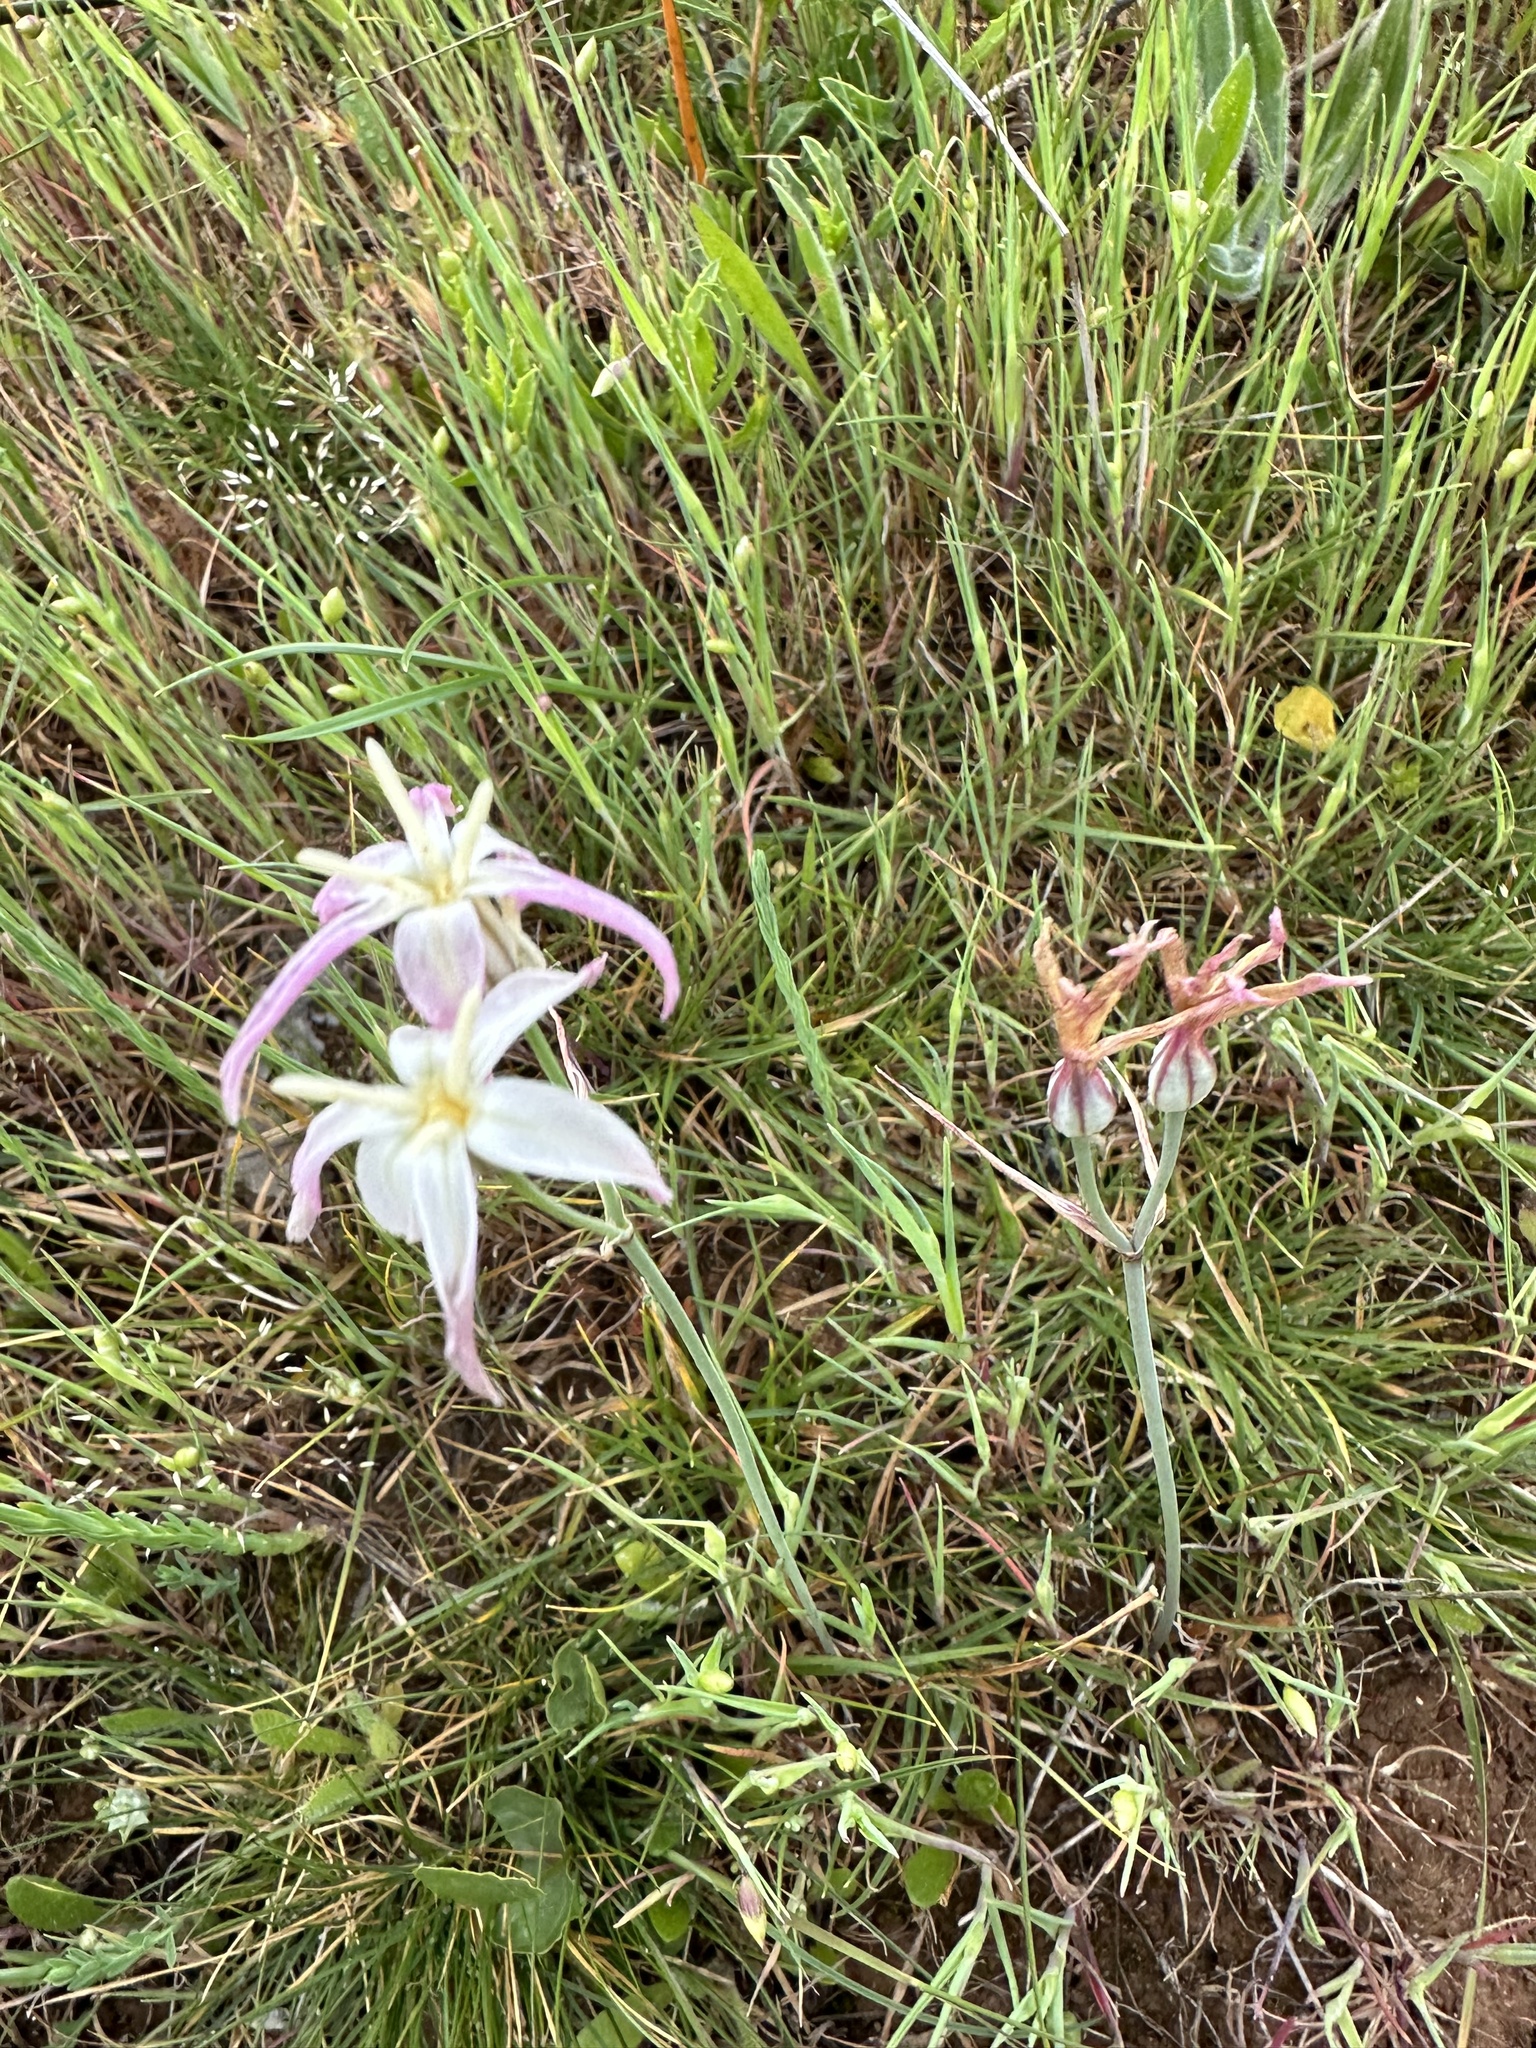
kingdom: Plantae
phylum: Tracheophyta
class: Liliopsida
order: Asparagales
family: Amaryllidaceae
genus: Leucocoryne
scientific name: Leucocoryne alliacea
